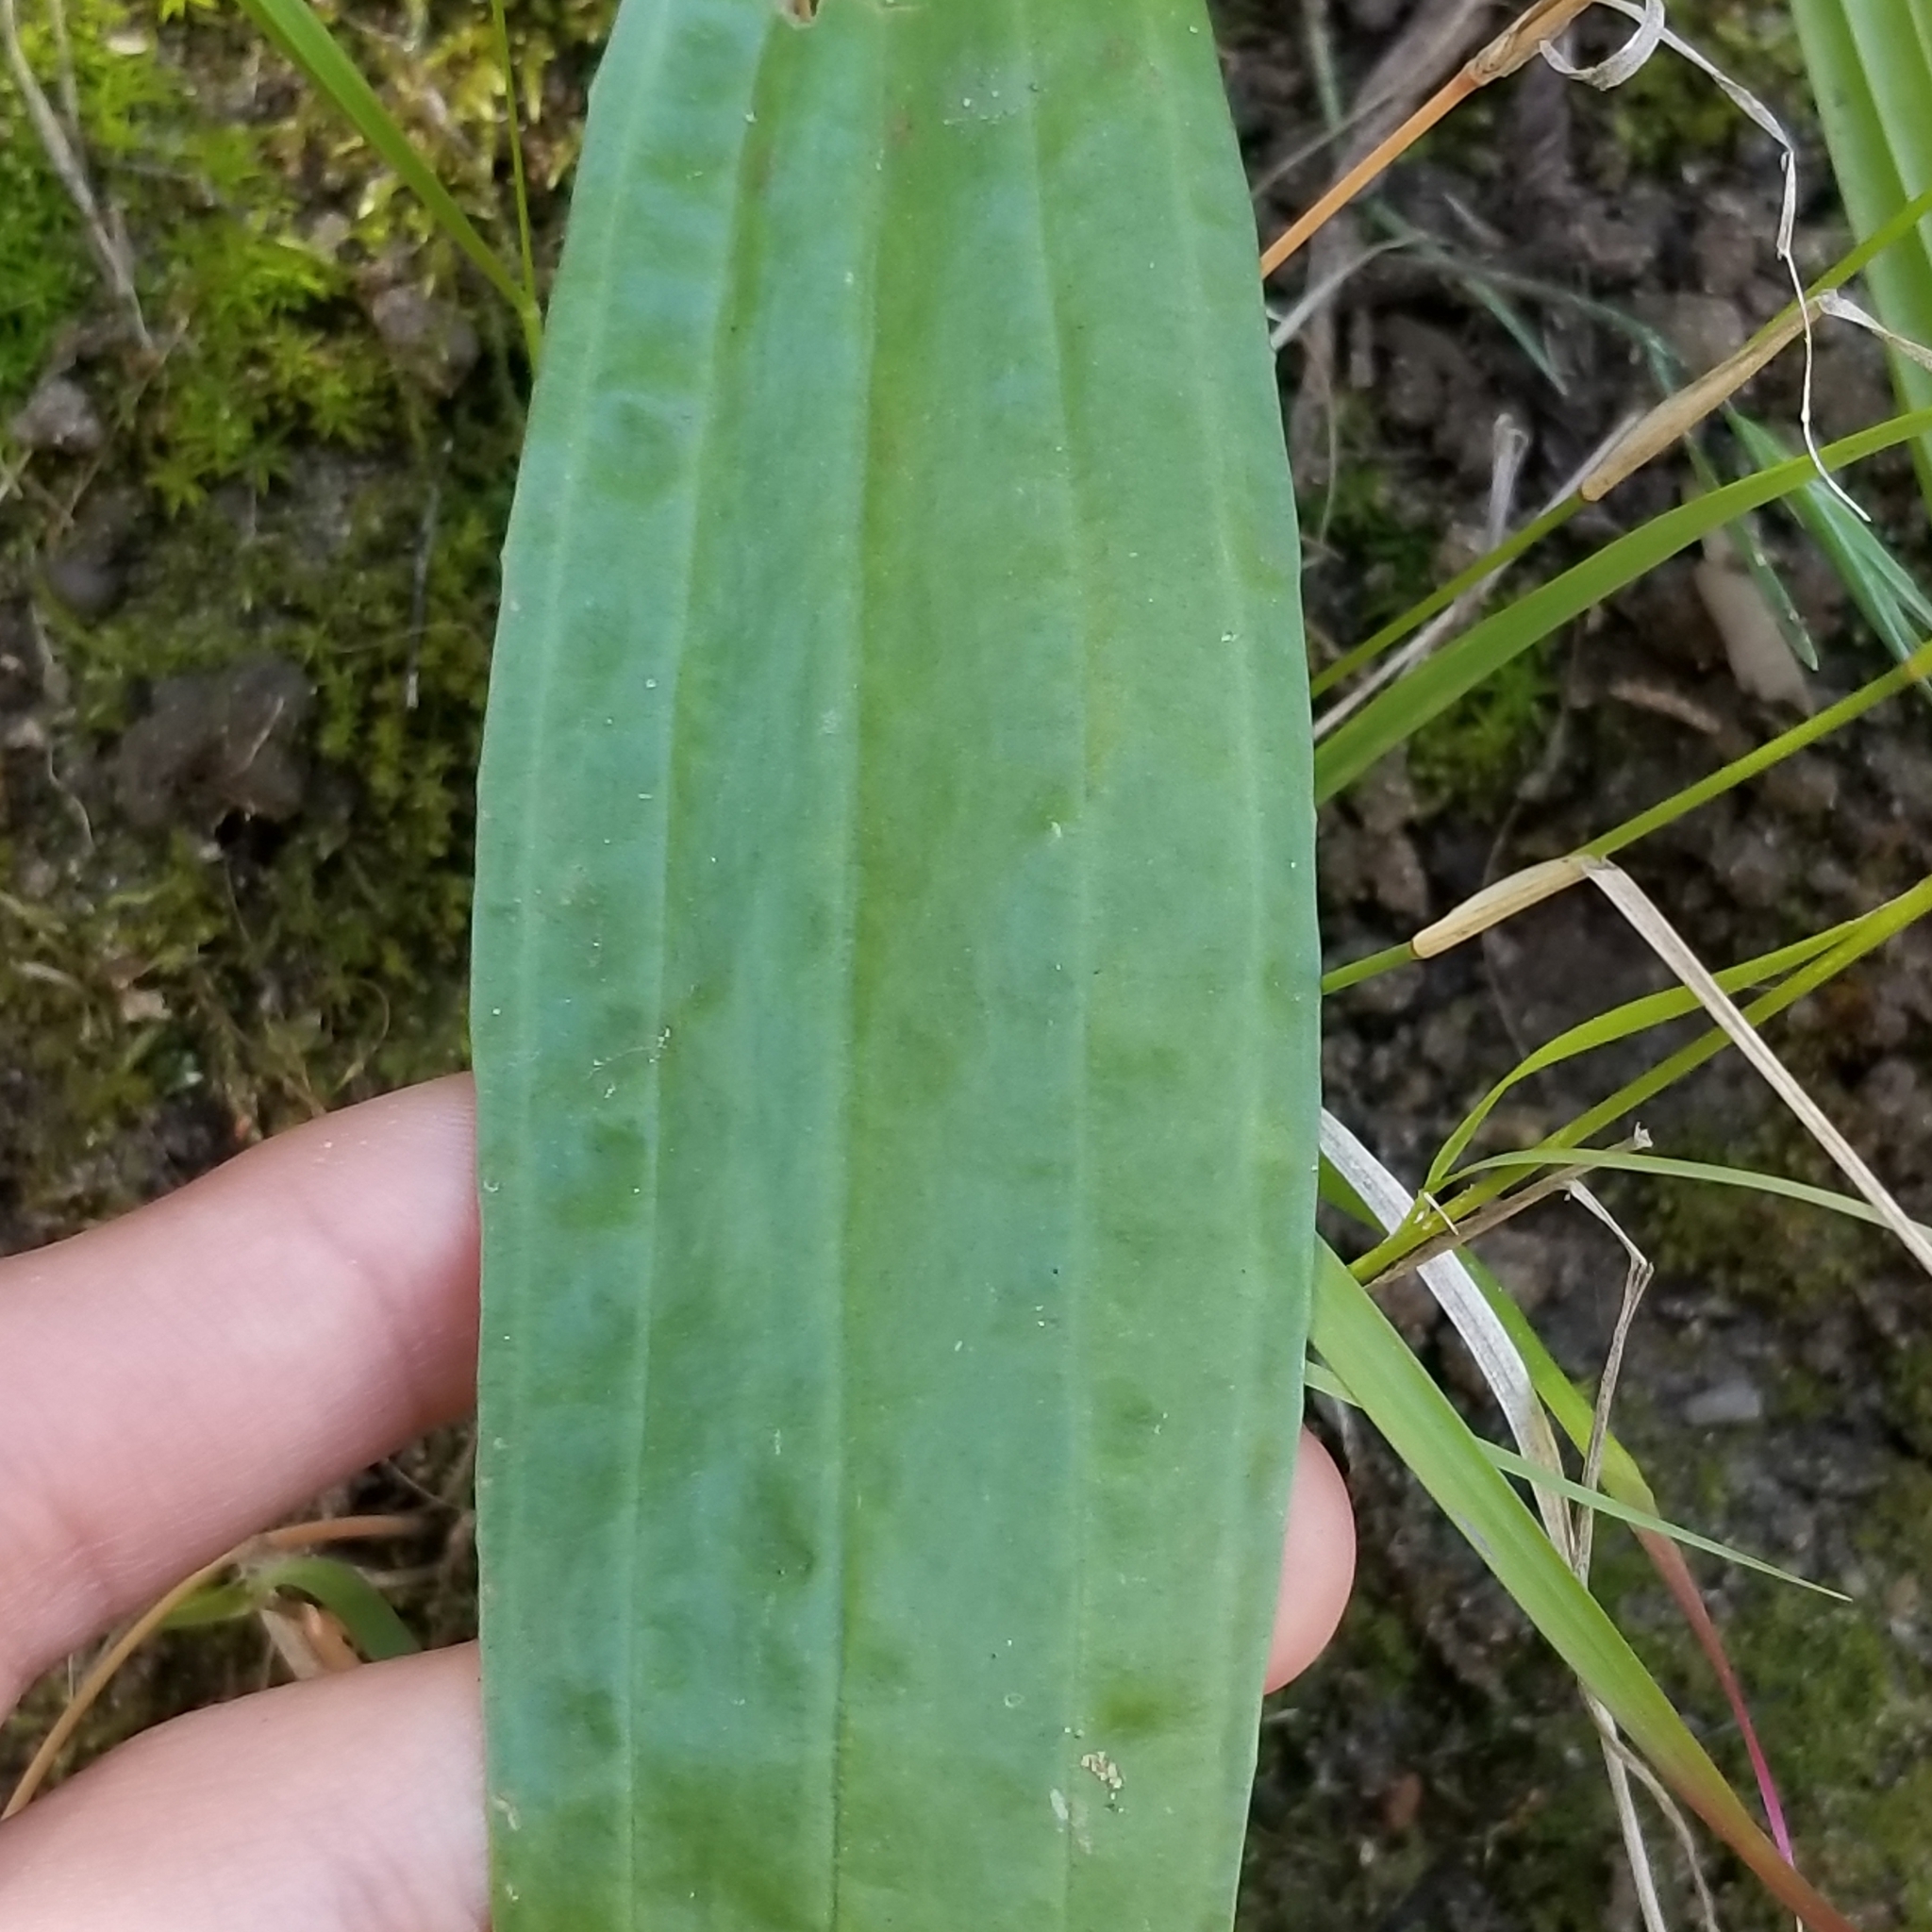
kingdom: Plantae
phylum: Tracheophyta
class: Magnoliopsida
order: Lamiales
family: Plantaginaceae
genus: Plantago
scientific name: Plantago lanceolata
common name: Ribwort plantain
